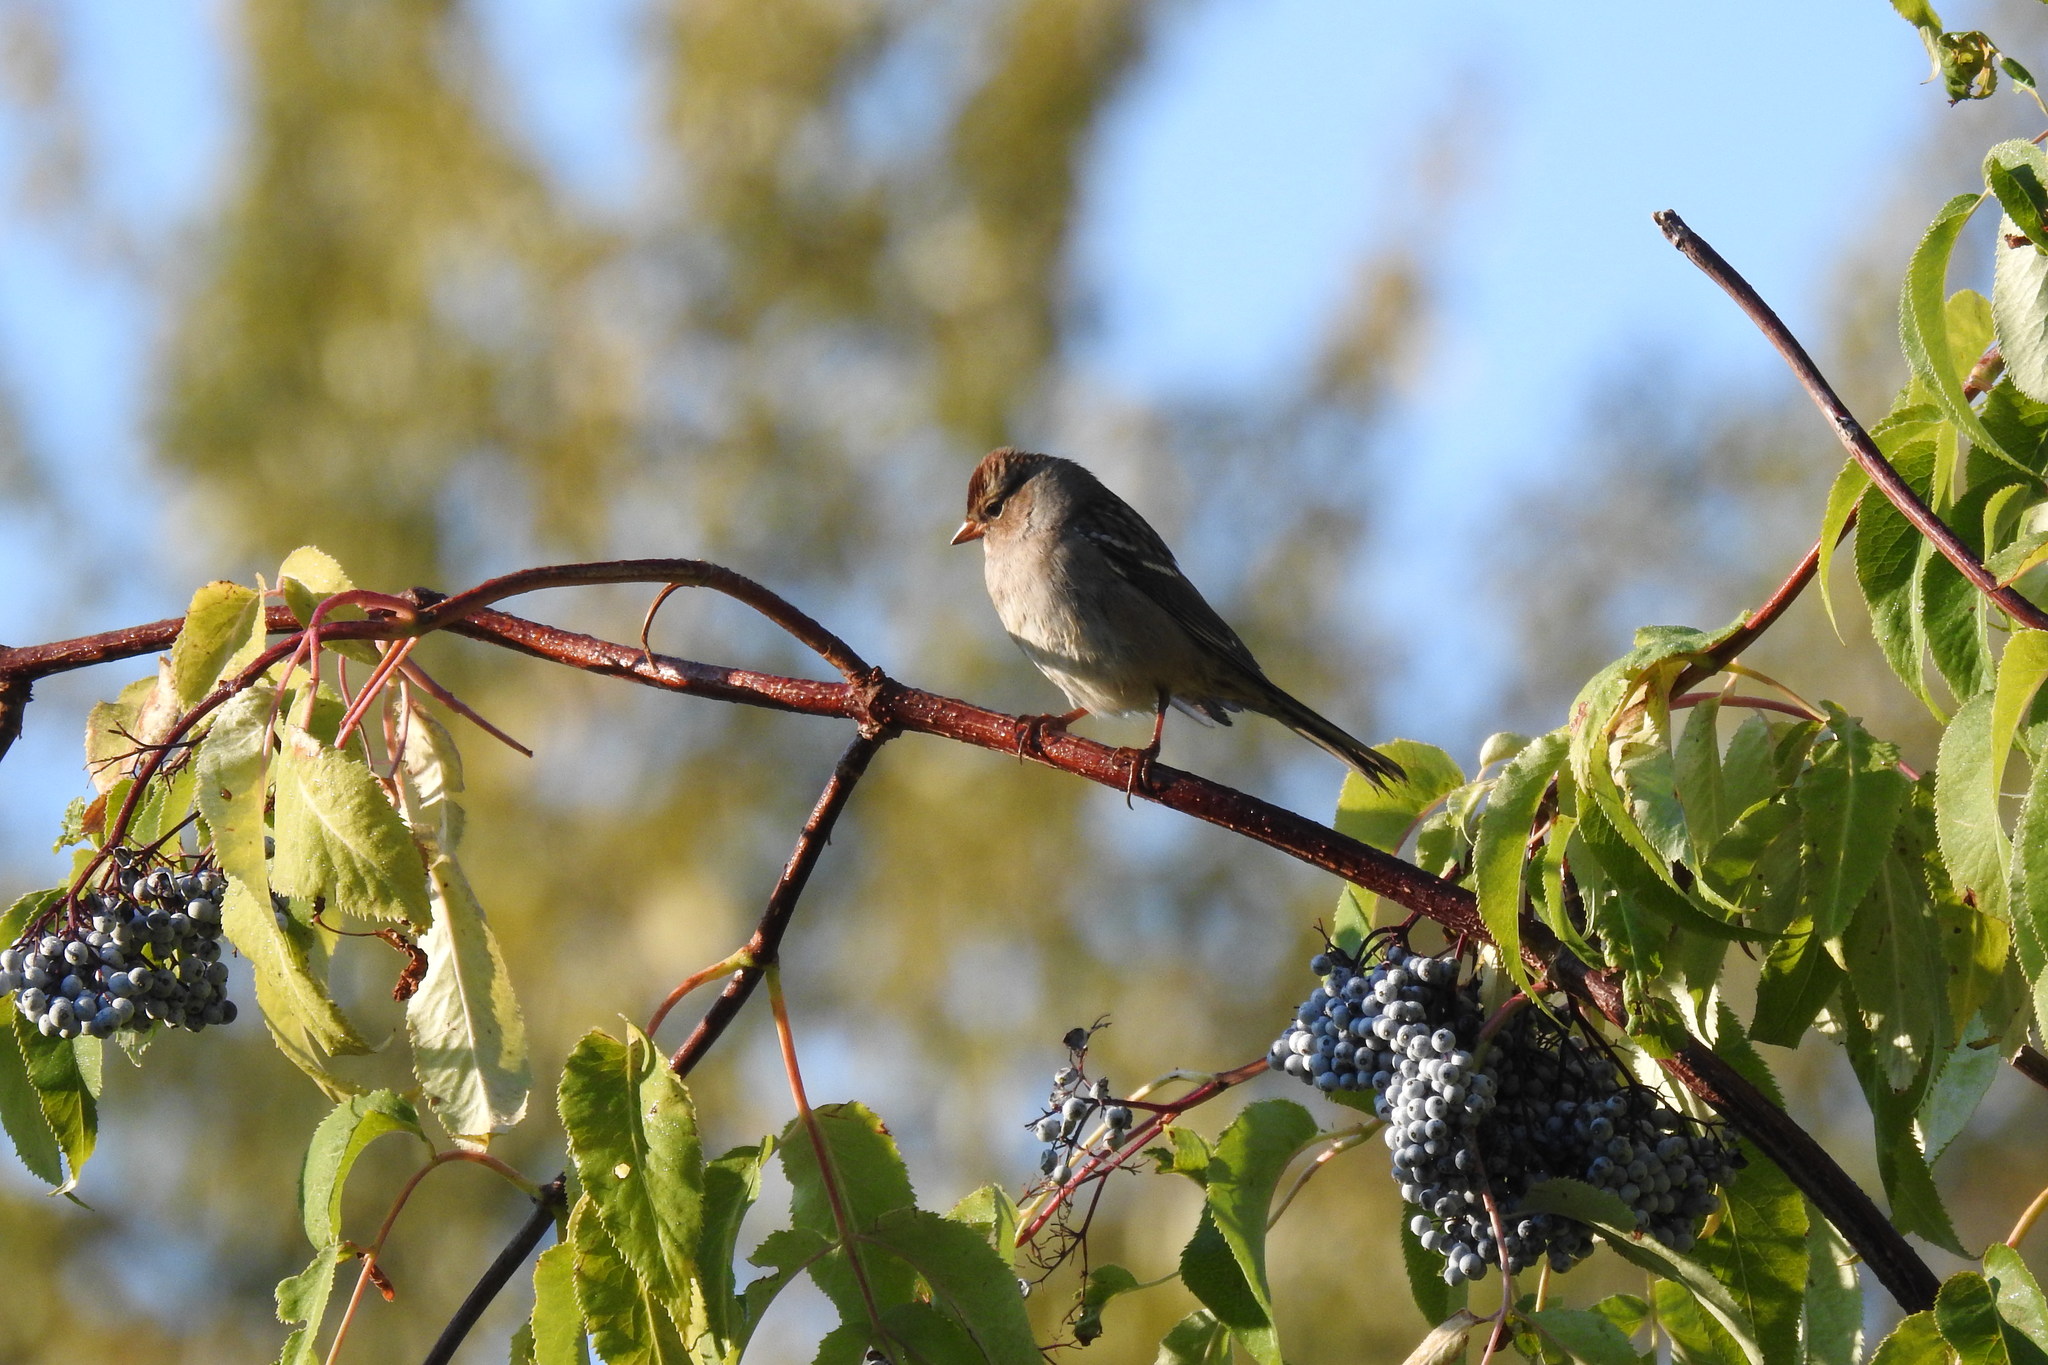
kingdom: Animalia
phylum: Chordata
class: Aves
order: Passeriformes
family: Passerellidae
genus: Zonotrichia
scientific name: Zonotrichia leucophrys
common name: White-crowned sparrow
